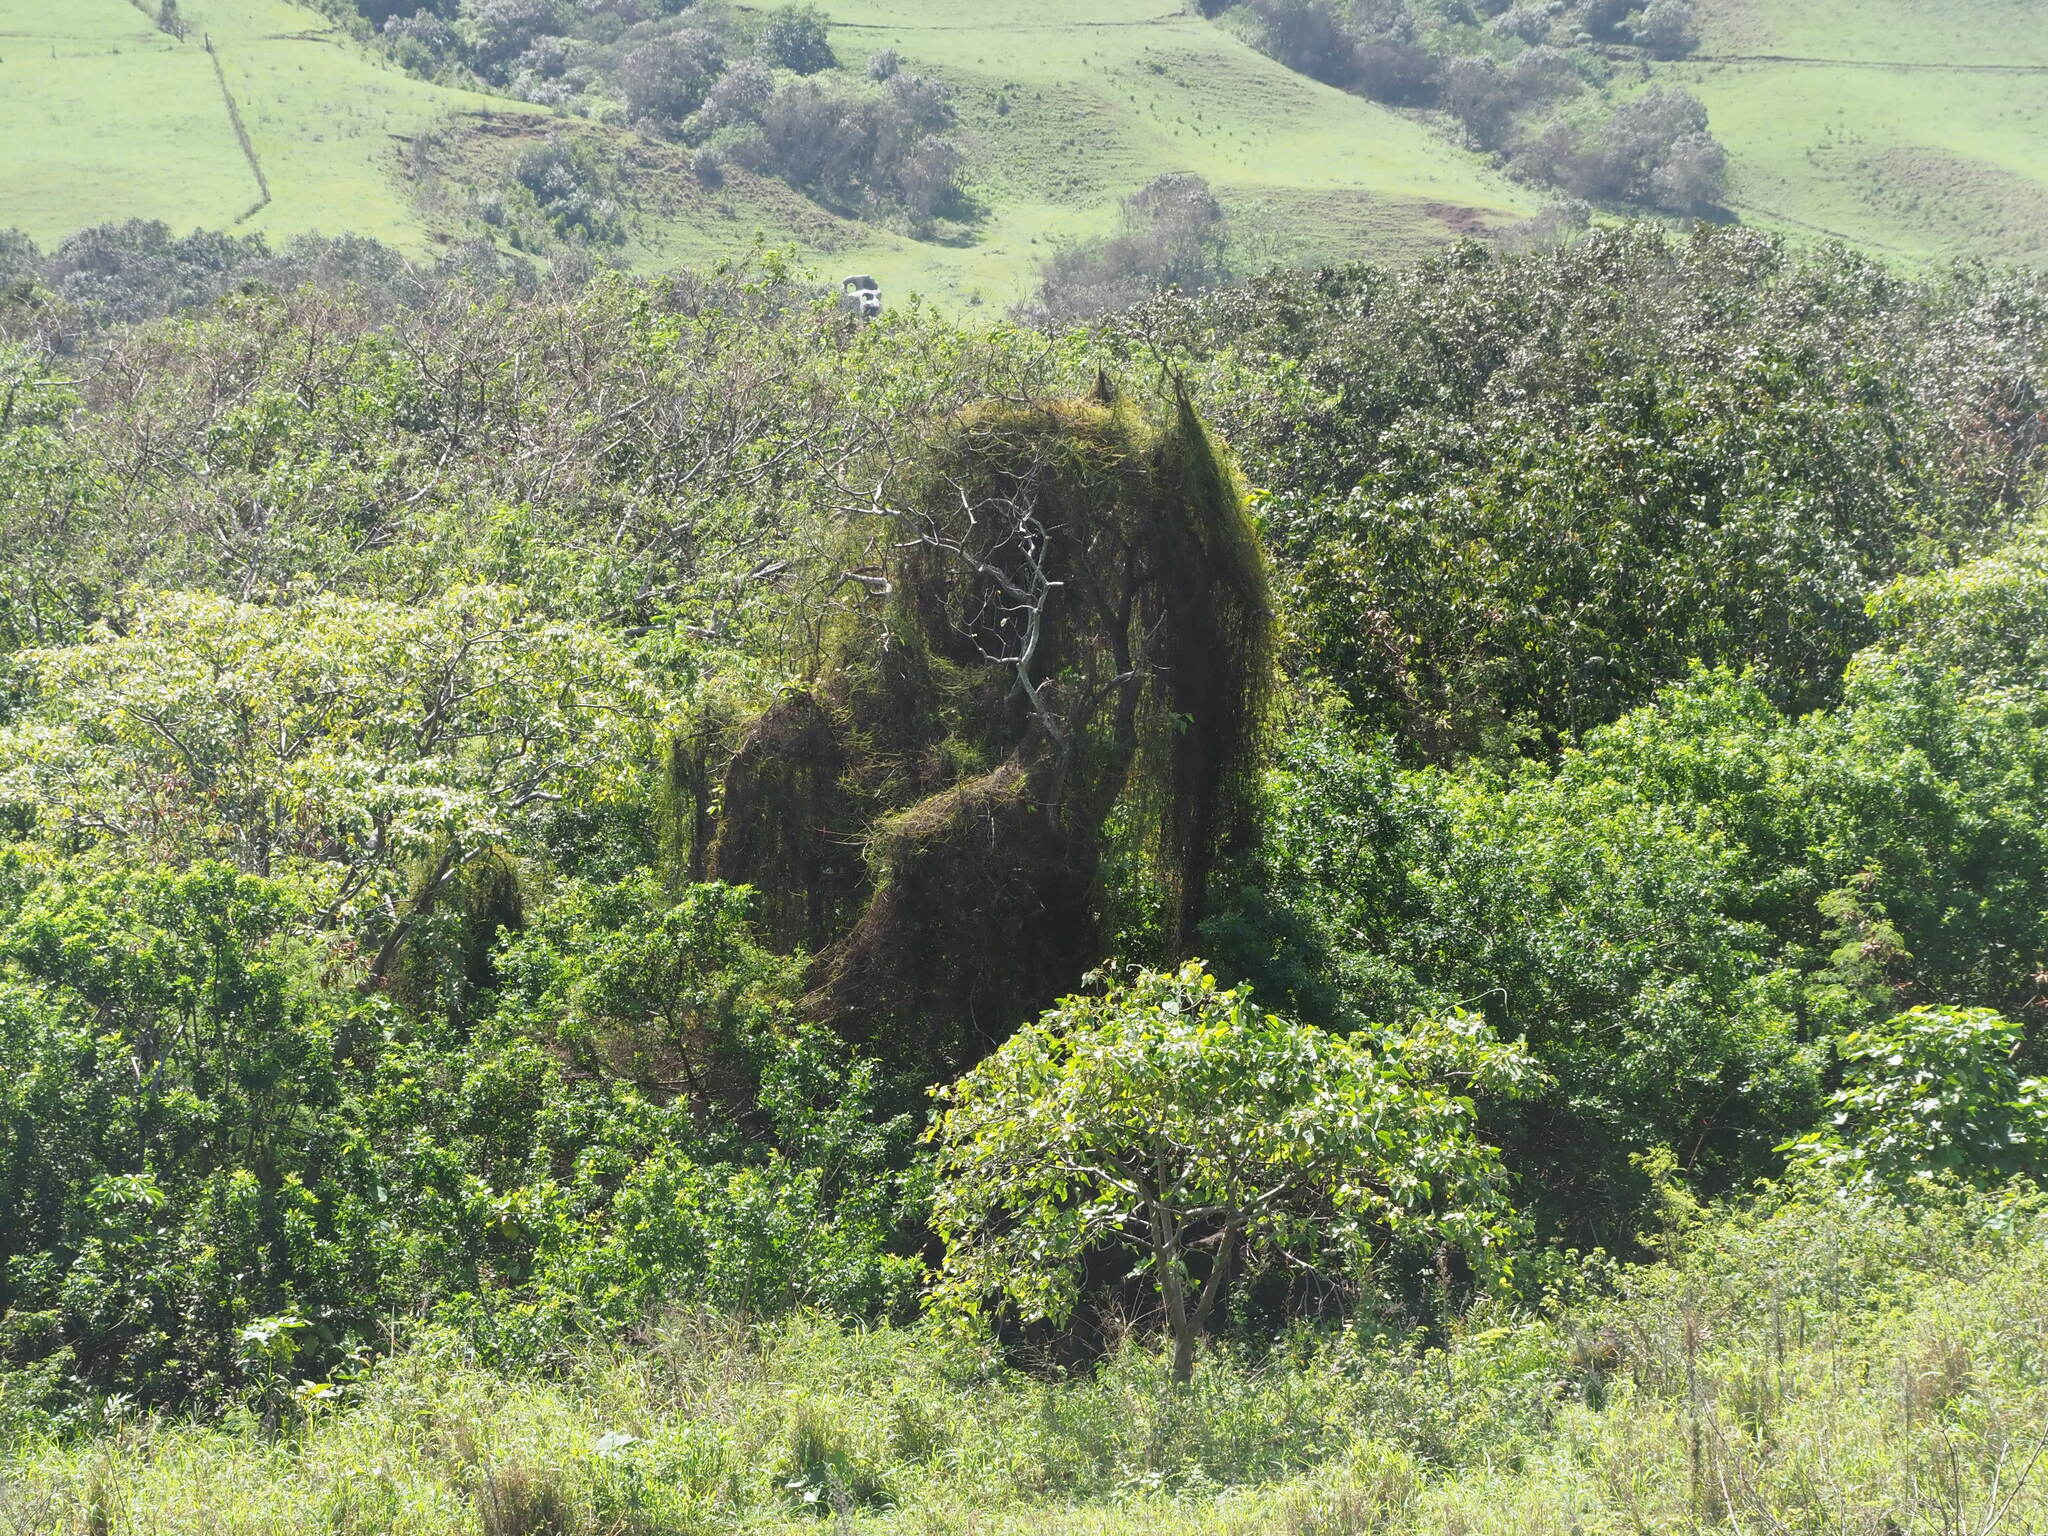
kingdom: Plantae
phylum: Tracheophyta
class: Magnoliopsida
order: Laurales
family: Lauraceae
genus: Cassytha
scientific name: Cassytha filiformis
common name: Dodder-laurel
